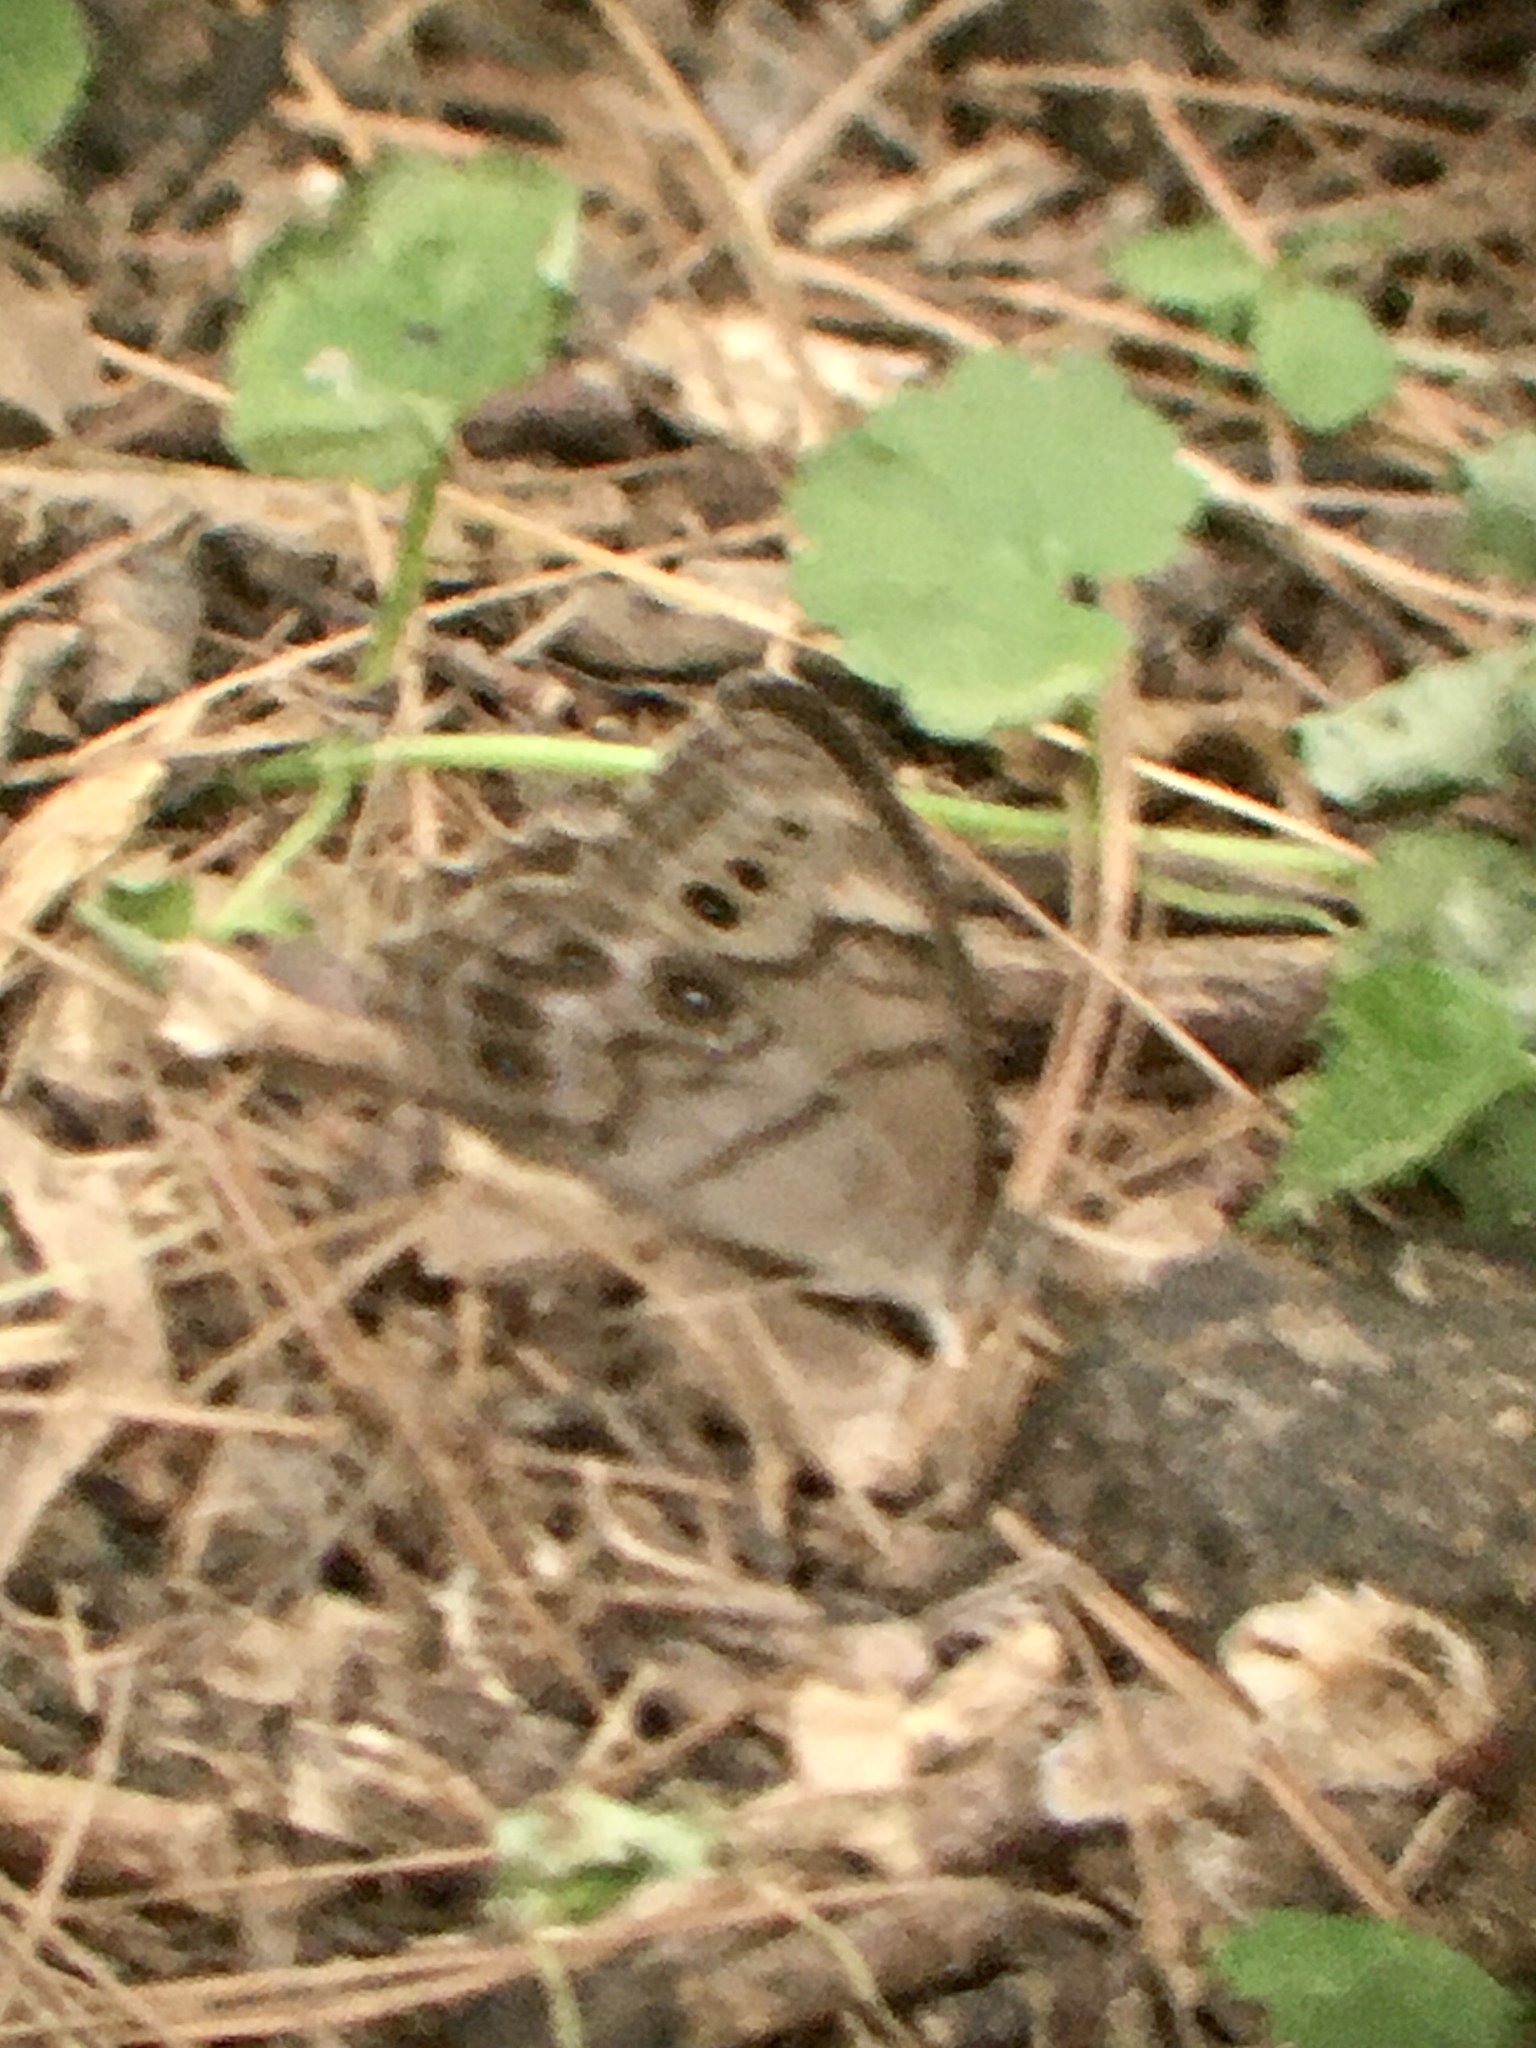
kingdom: Animalia
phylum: Arthropoda
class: Insecta
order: Lepidoptera
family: Nymphalidae
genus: Lethe
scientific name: Lethe anthedon
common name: Northern pearly-eye
